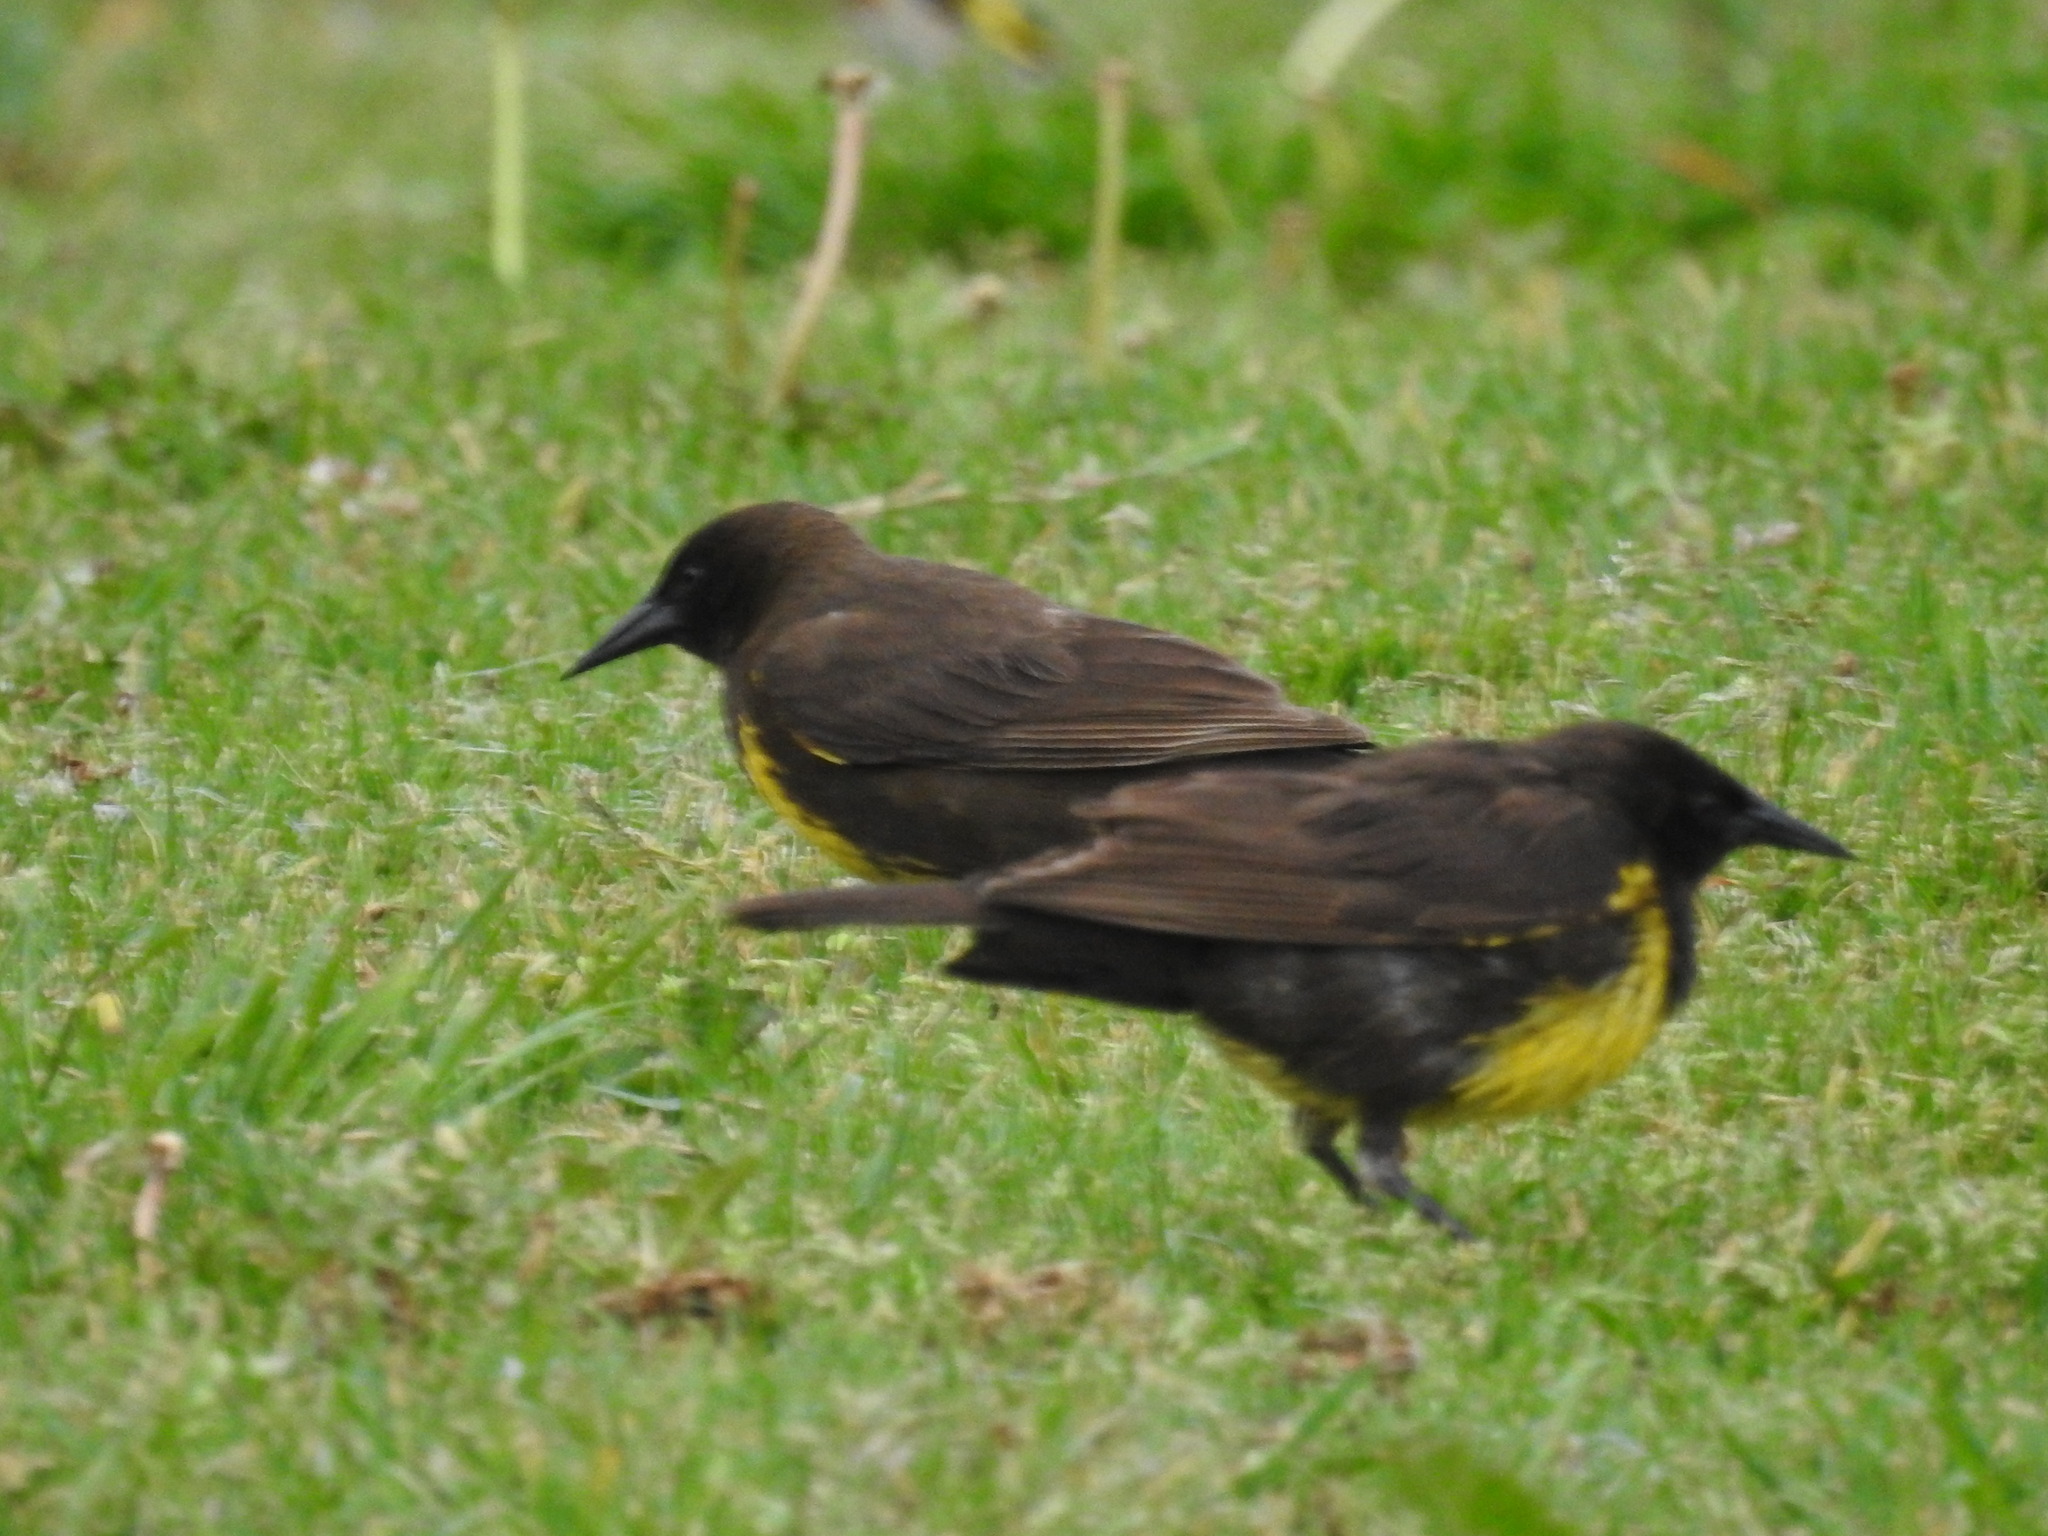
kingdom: Animalia
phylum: Chordata
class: Aves
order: Passeriformes
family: Icteridae
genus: Pseudoleistes
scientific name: Pseudoleistes virescens
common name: Brown-and-yellow marshbird
